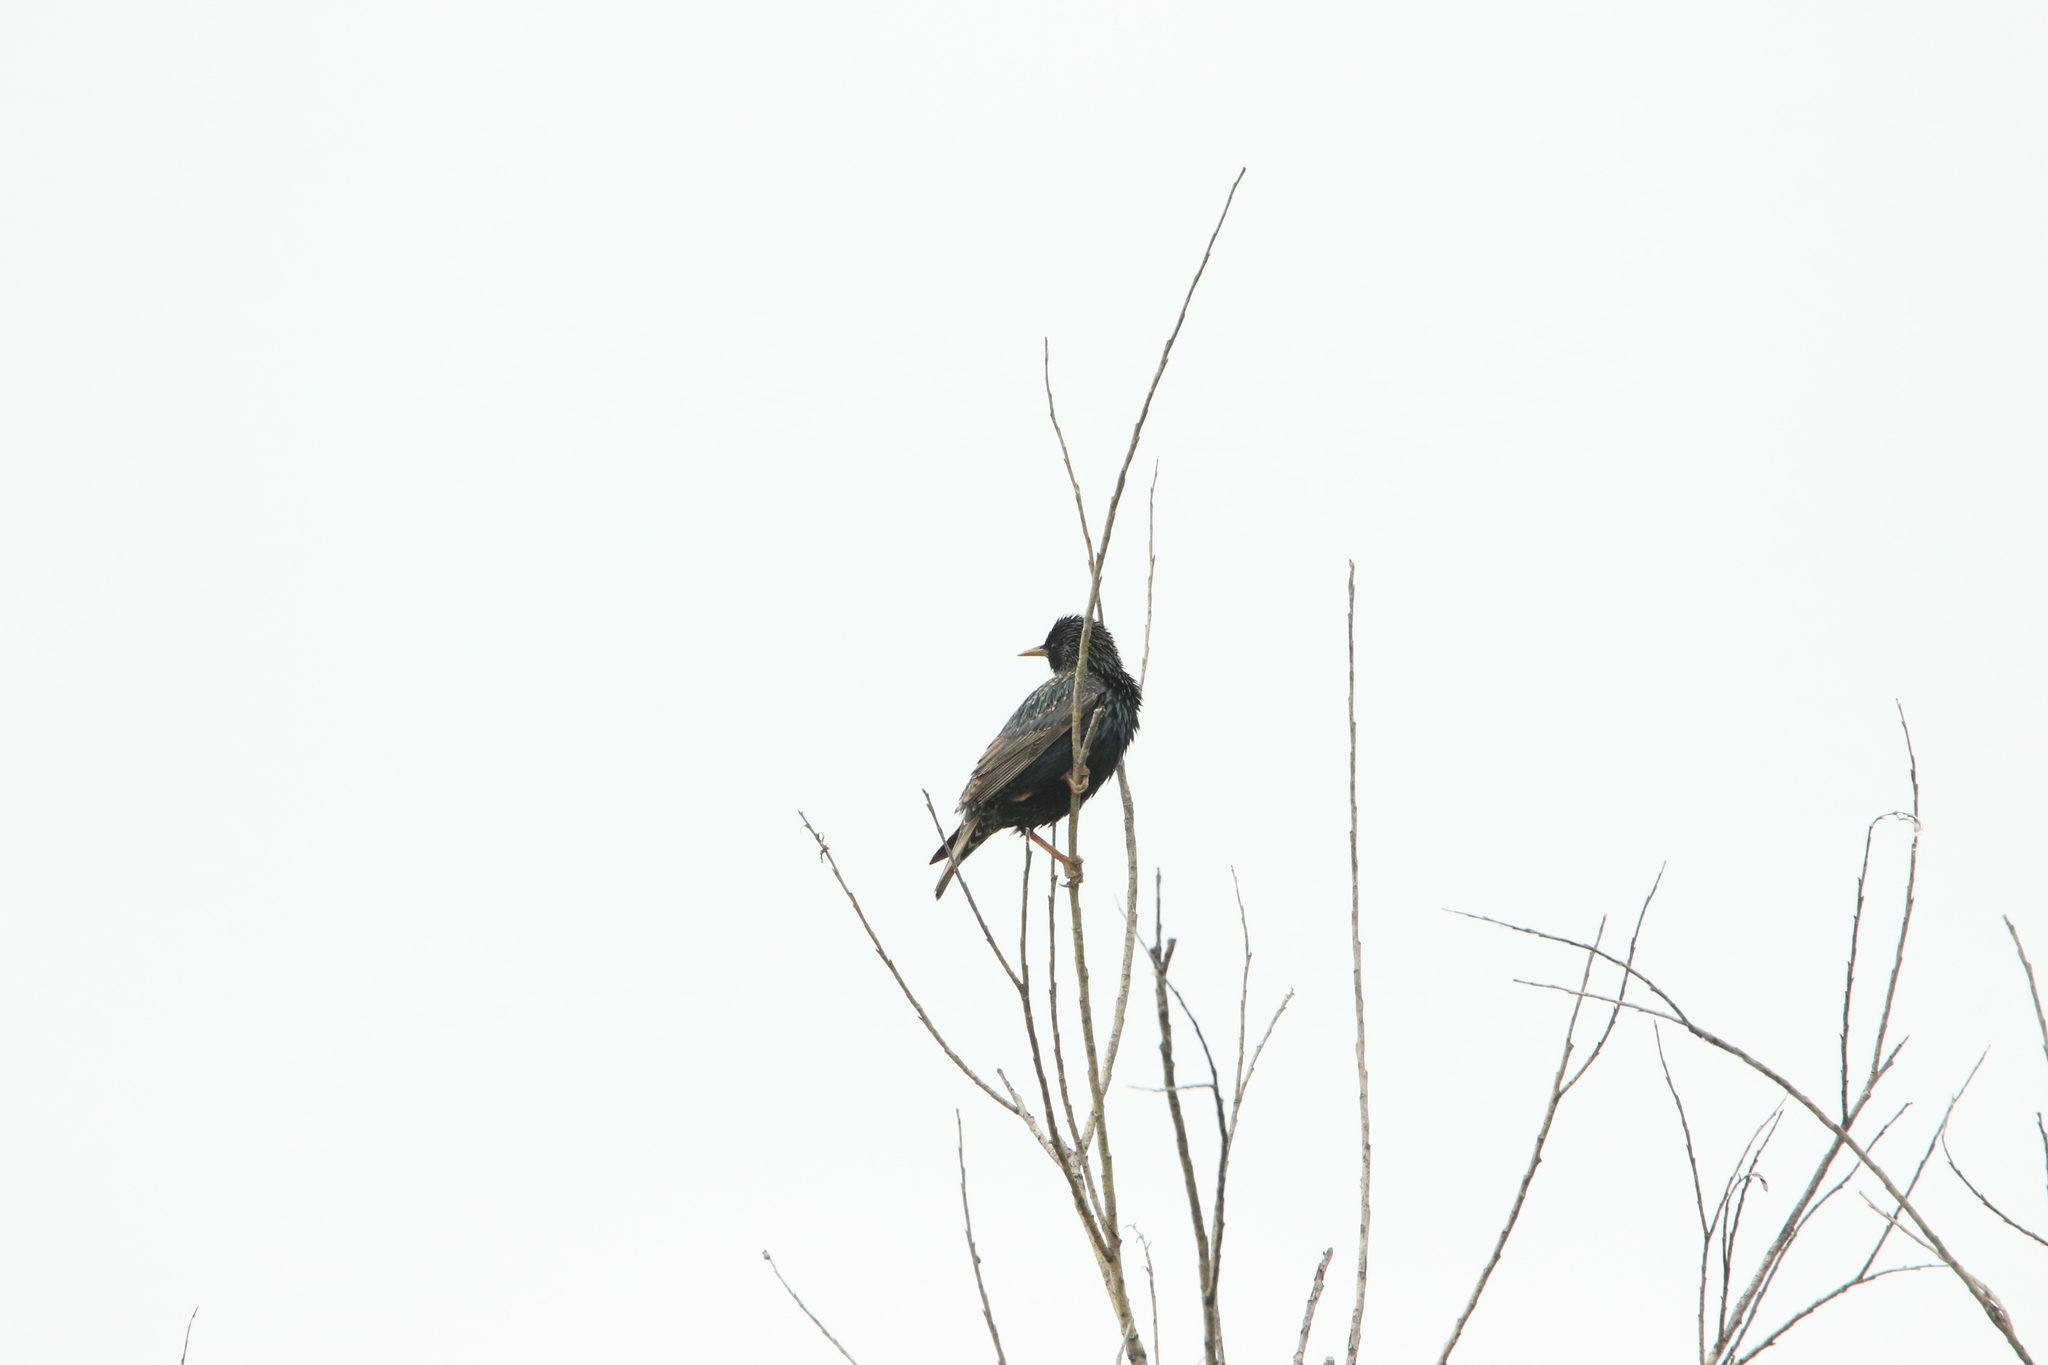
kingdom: Animalia
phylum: Chordata
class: Aves
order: Passeriformes
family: Sturnidae
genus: Sturnus
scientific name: Sturnus vulgaris
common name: Common starling
